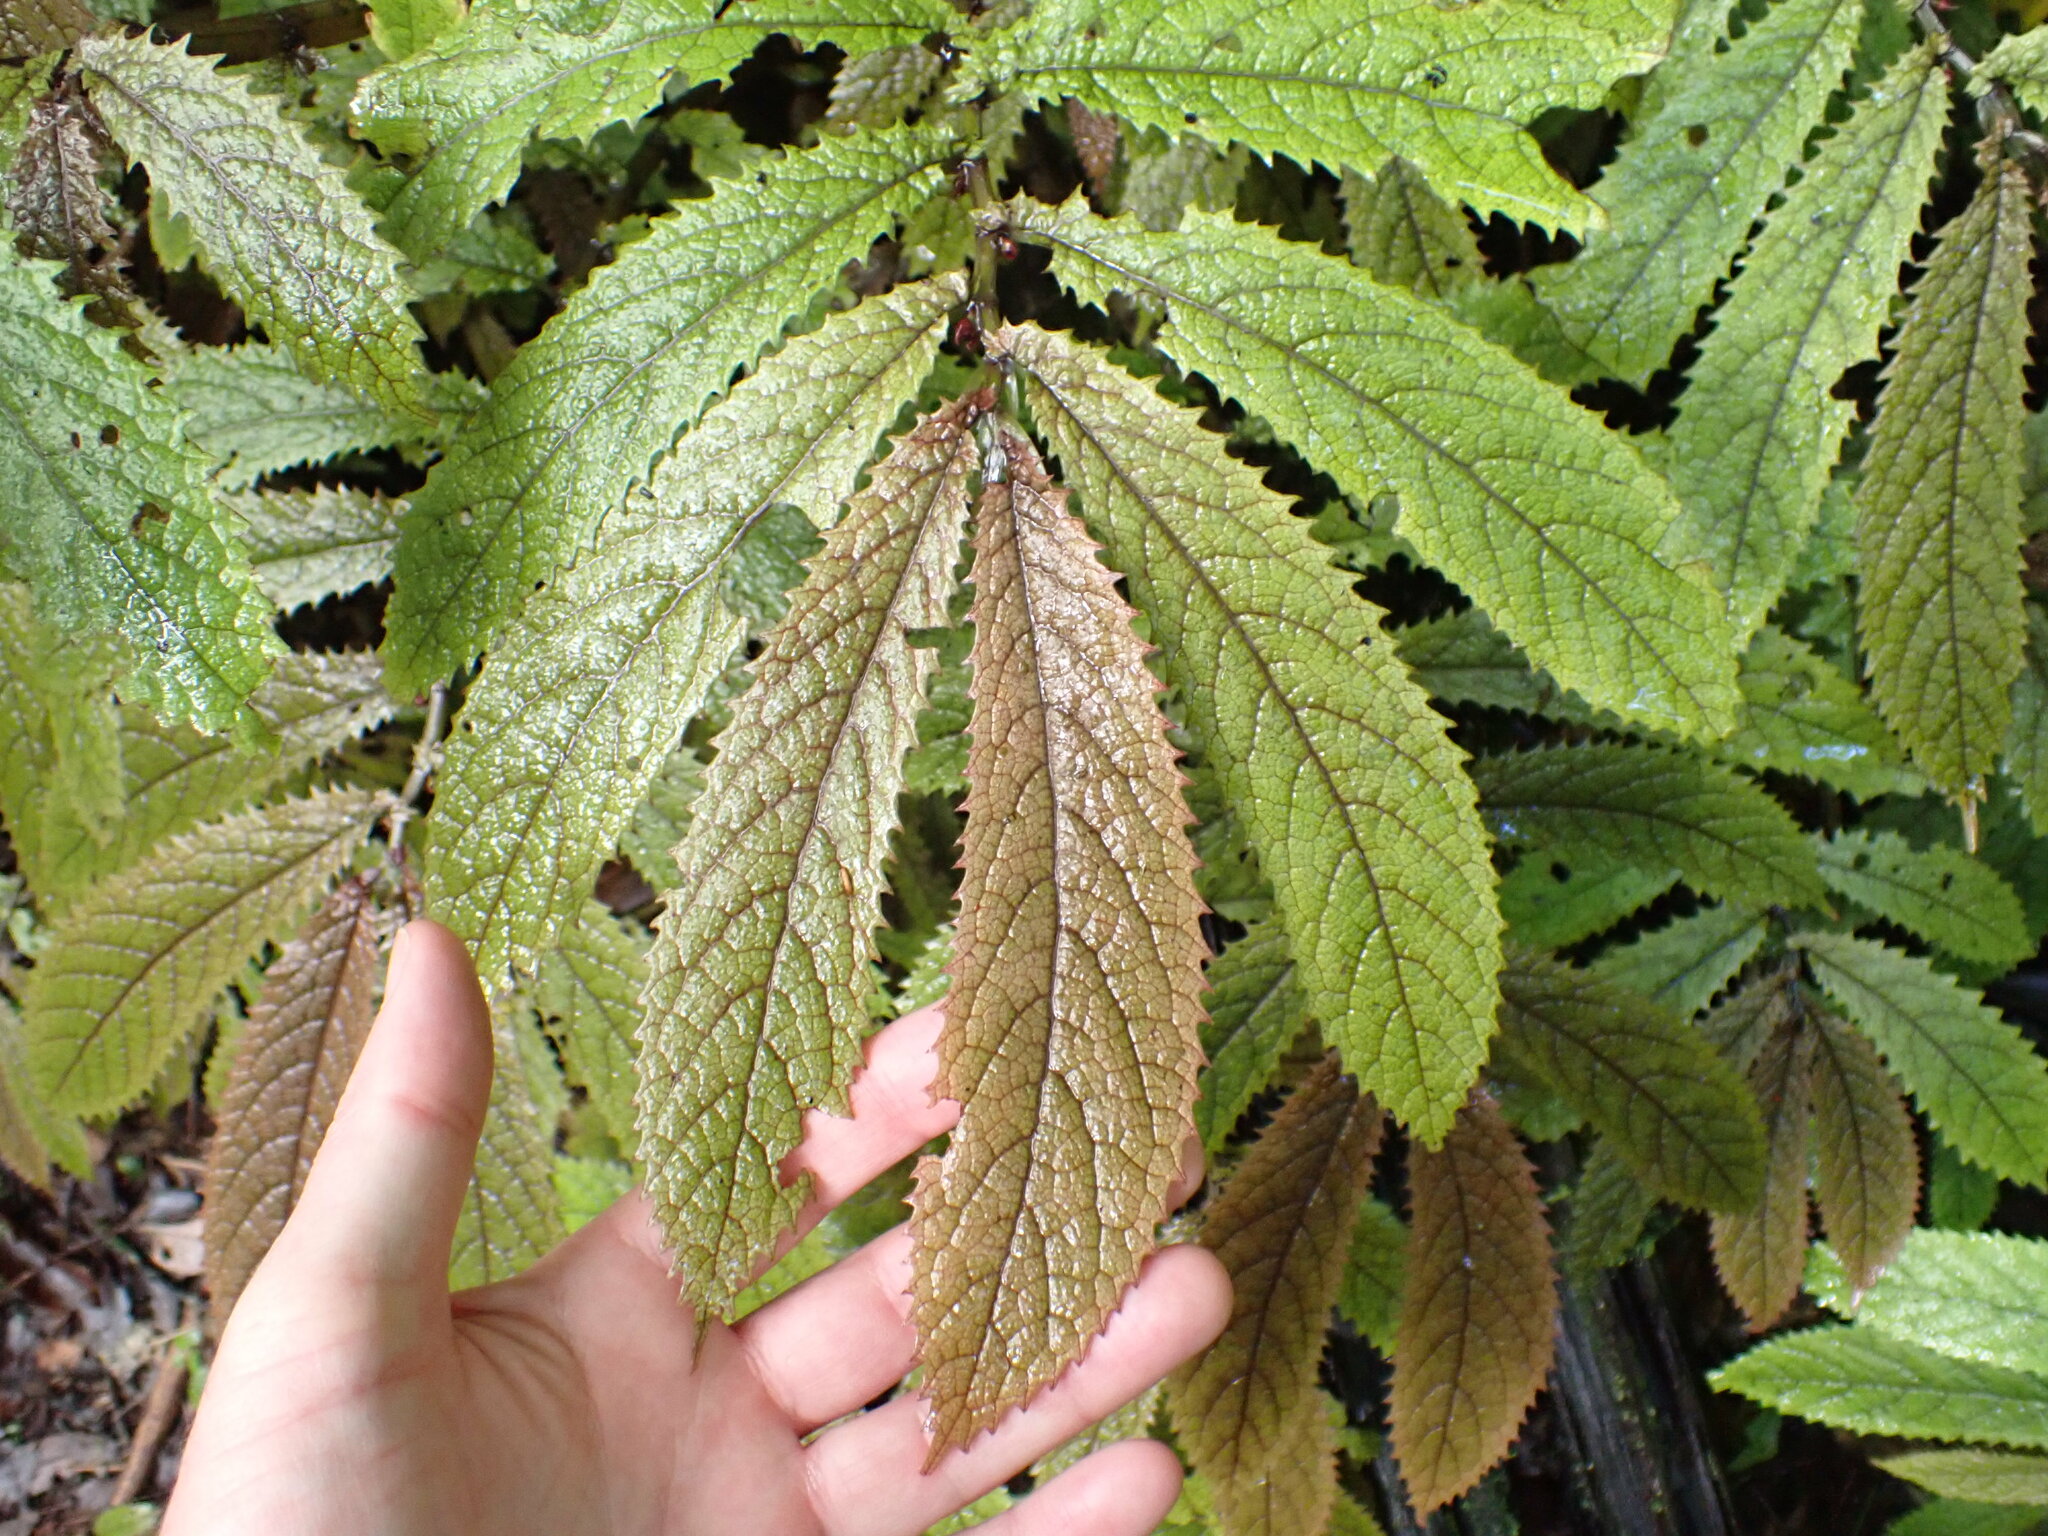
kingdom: Plantae
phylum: Tracheophyta
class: Magnoliopsida
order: Rosales
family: Urticaceae
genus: Elatostema
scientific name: Elatostema rugosum
